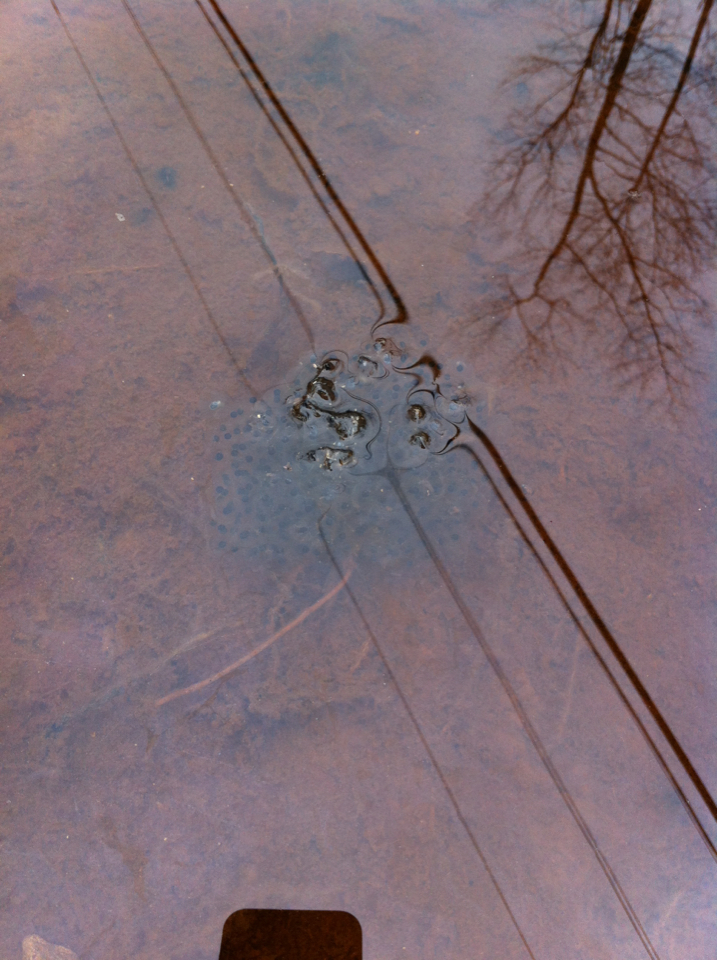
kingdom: Animalia
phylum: Chordata
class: Amphibia
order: Anura
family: Ranidae
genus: Lithobates
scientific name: Lithobates sylvaticus
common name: Wood frog
